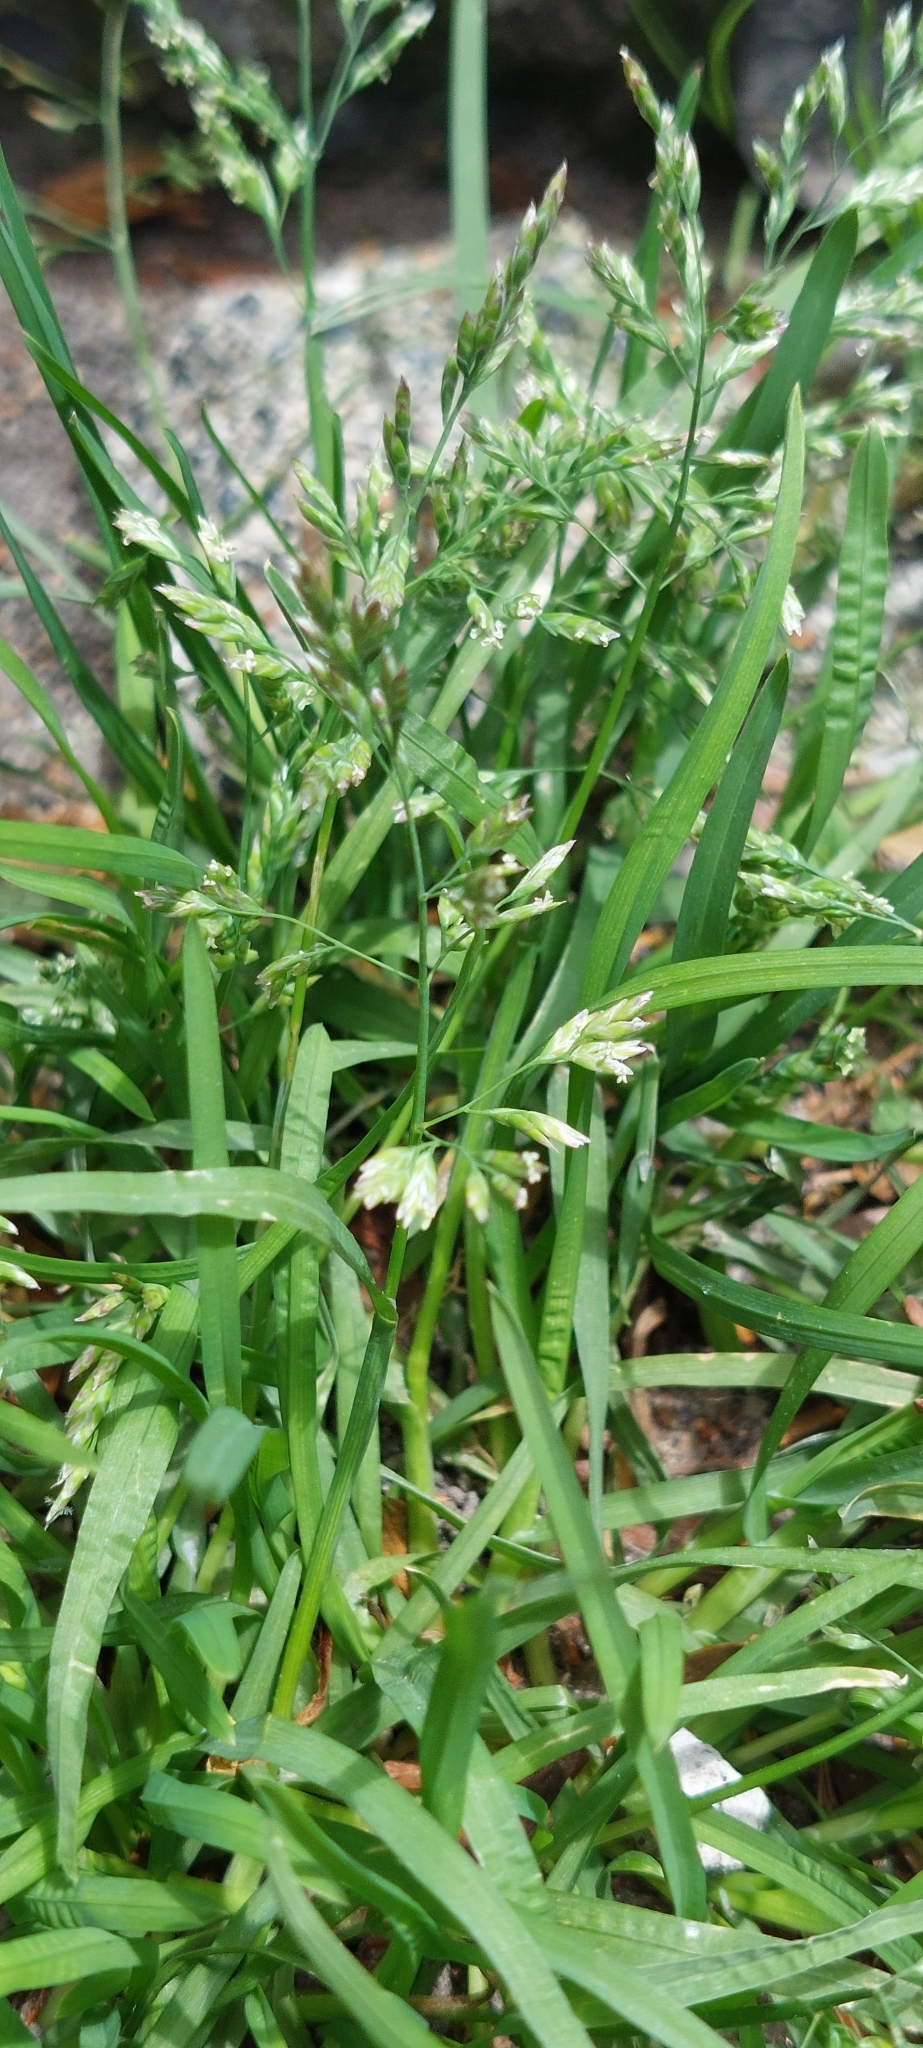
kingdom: Plantae
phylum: Tracheophyta
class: Liliopsida
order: Poales
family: Poaceae
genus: Poa
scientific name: Poa annua
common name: Annual bluegrass
